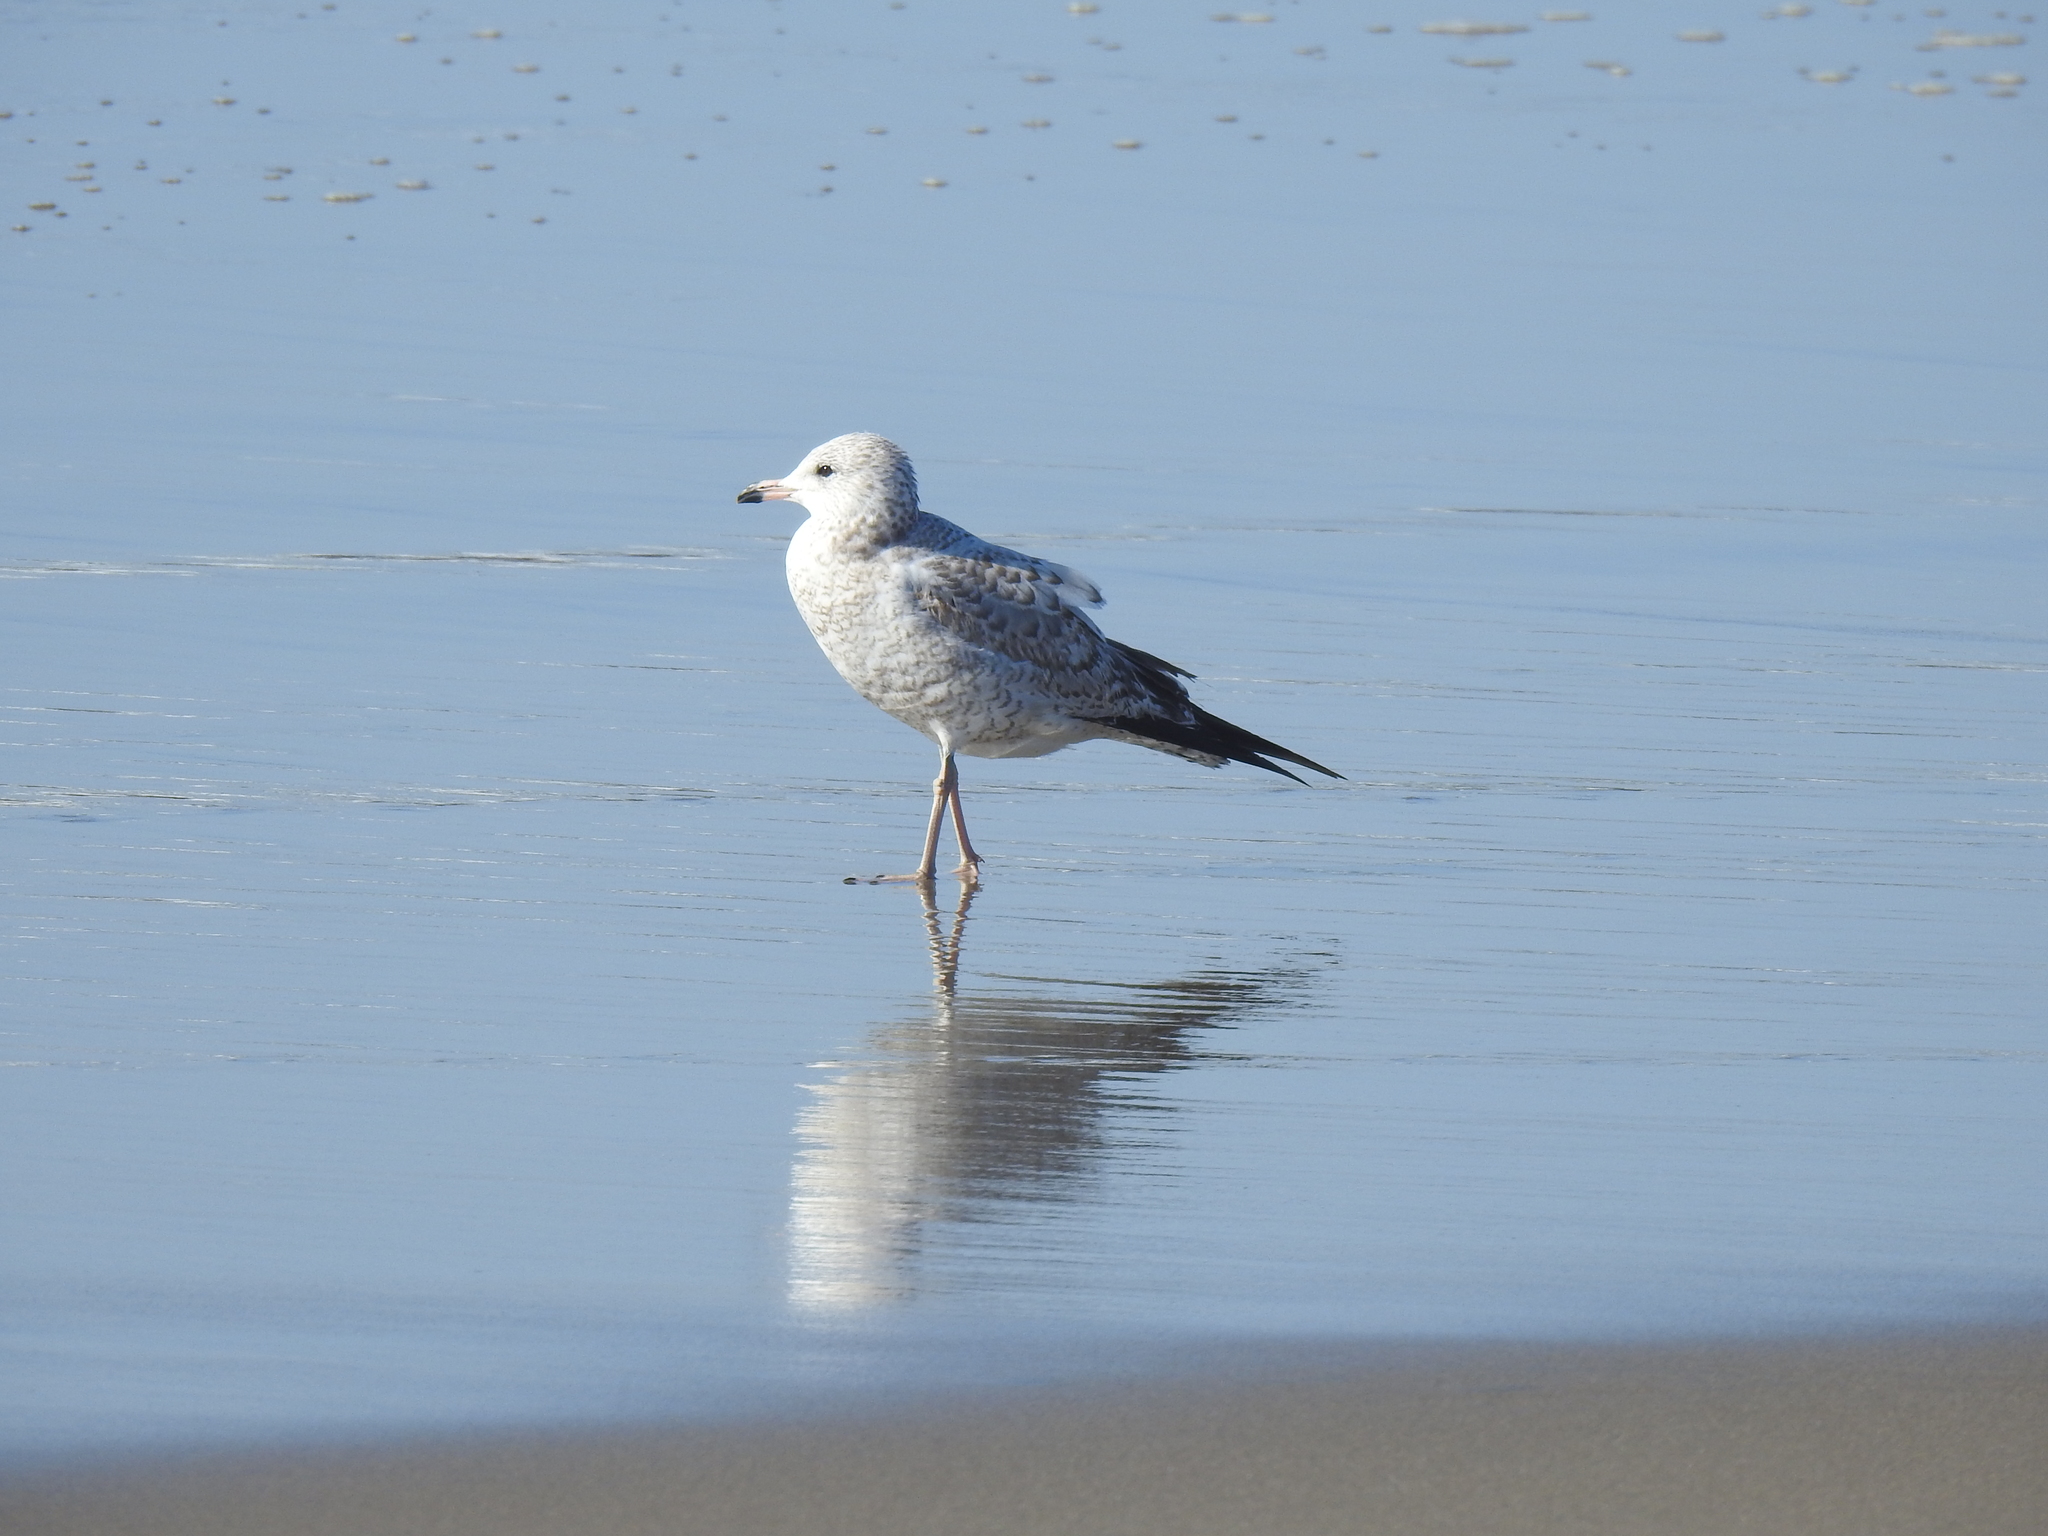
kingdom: Animalia
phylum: Chordata
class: Aves
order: Charadriiformes
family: Laridae
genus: Larus
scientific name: Larus delawarensis
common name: Ring-billed gull
